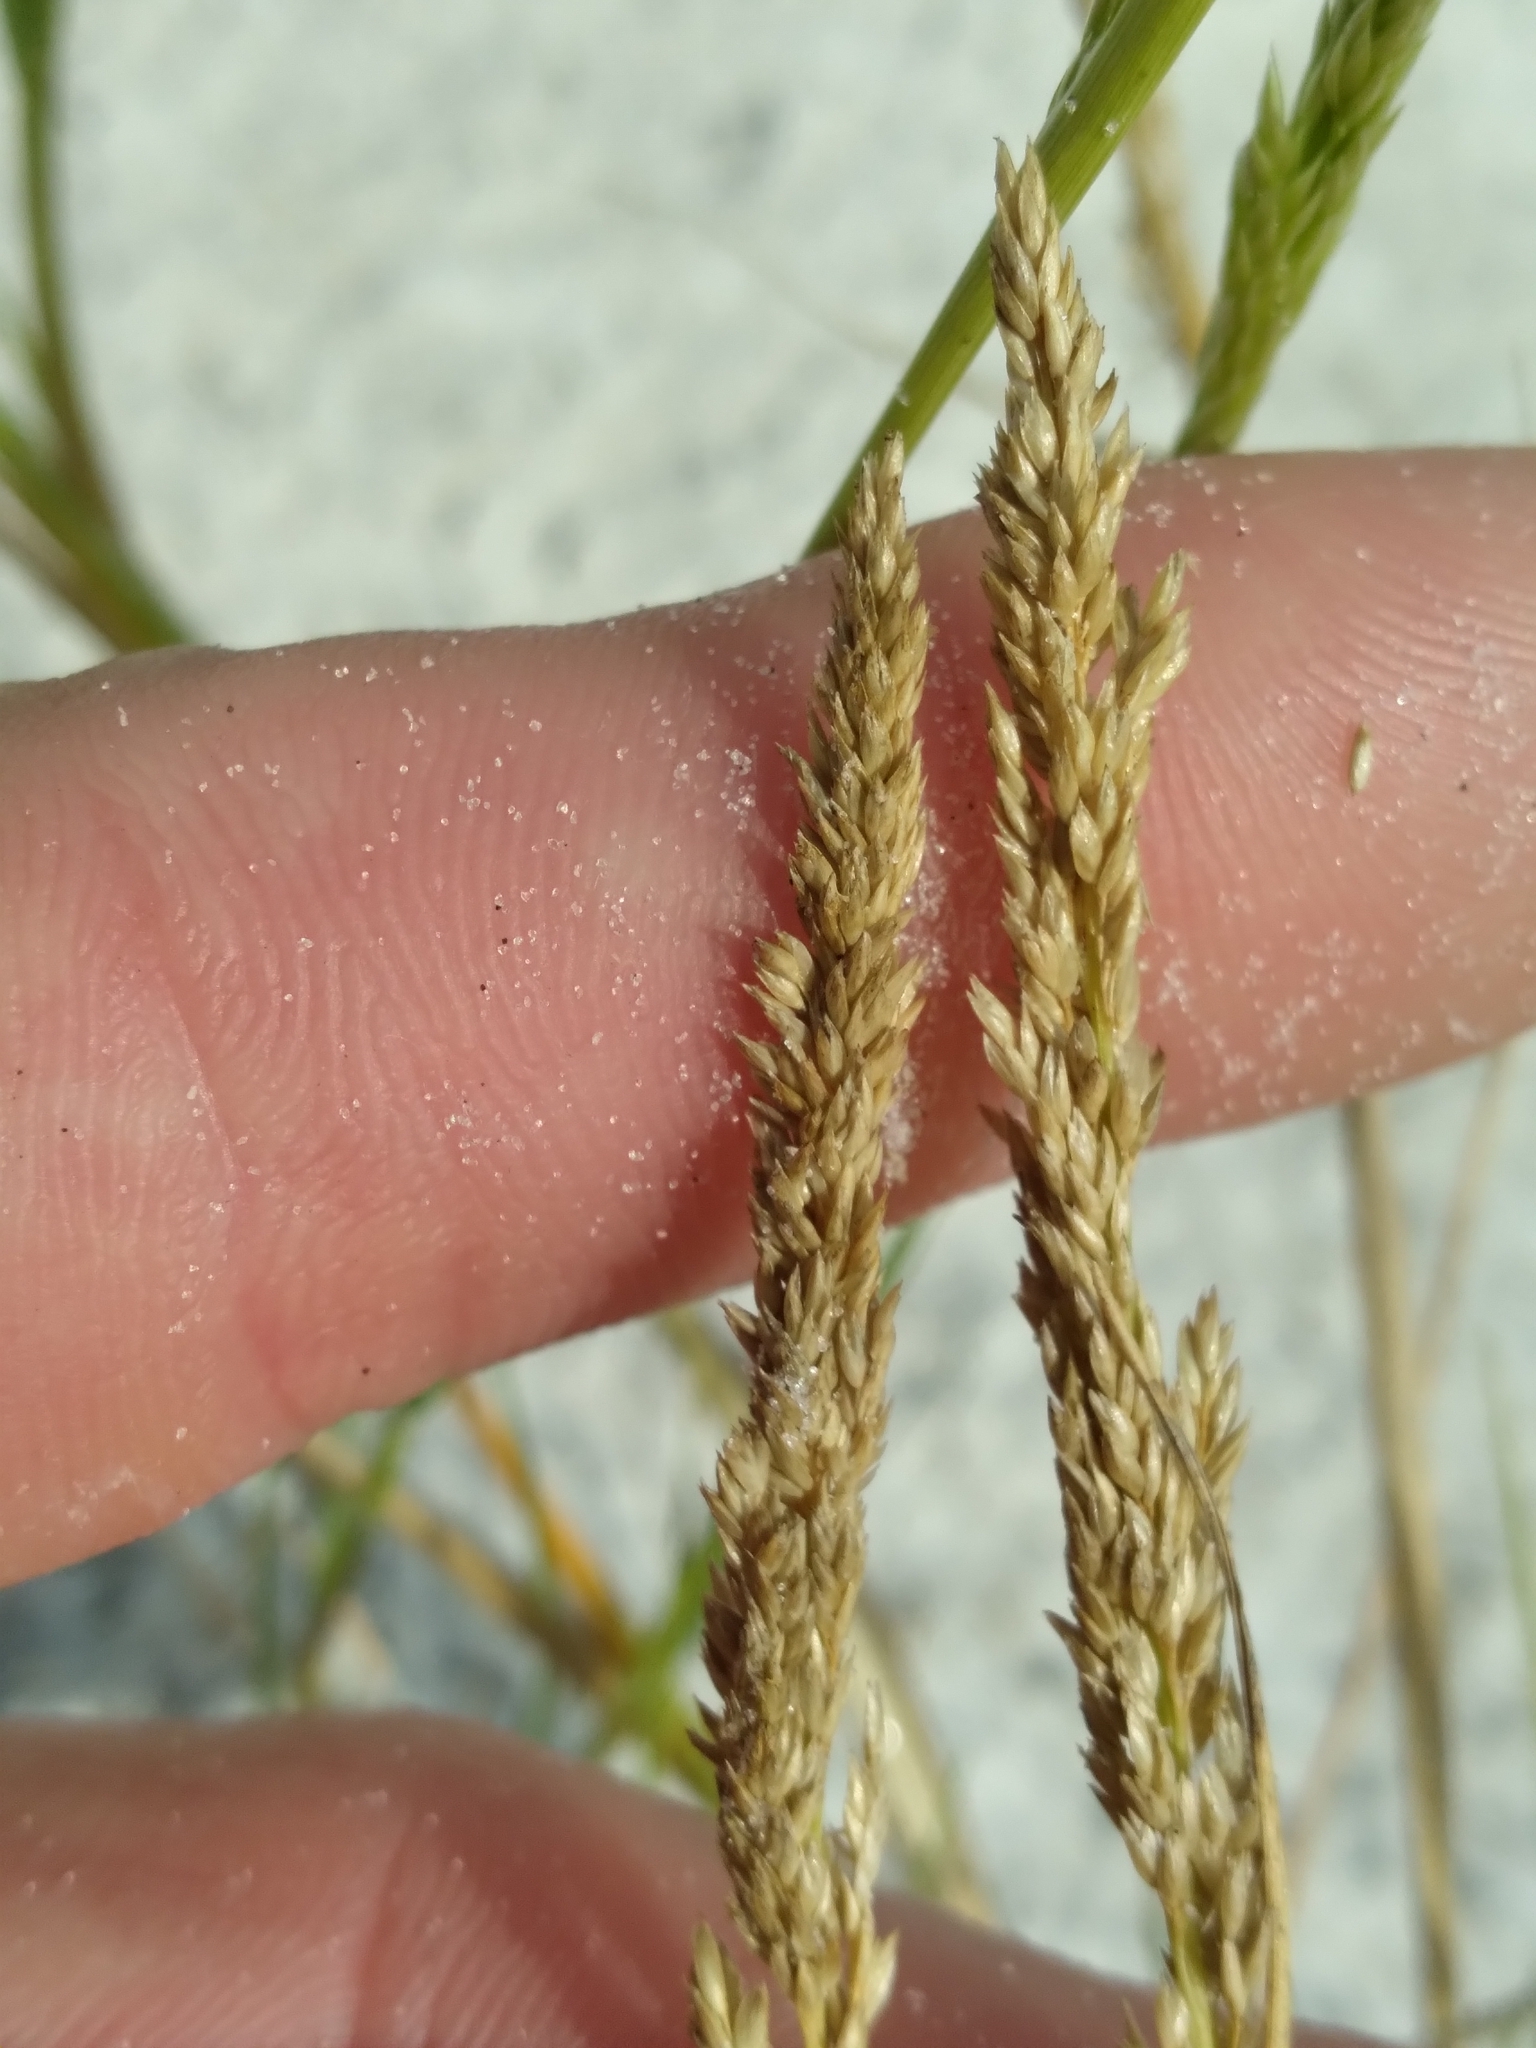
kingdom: Plantae
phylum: Tracheophyta
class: Liliopsida
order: Poales
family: Poaceae
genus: Sporobolus
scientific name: Sporobolus virginicus
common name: Beach dropseed
